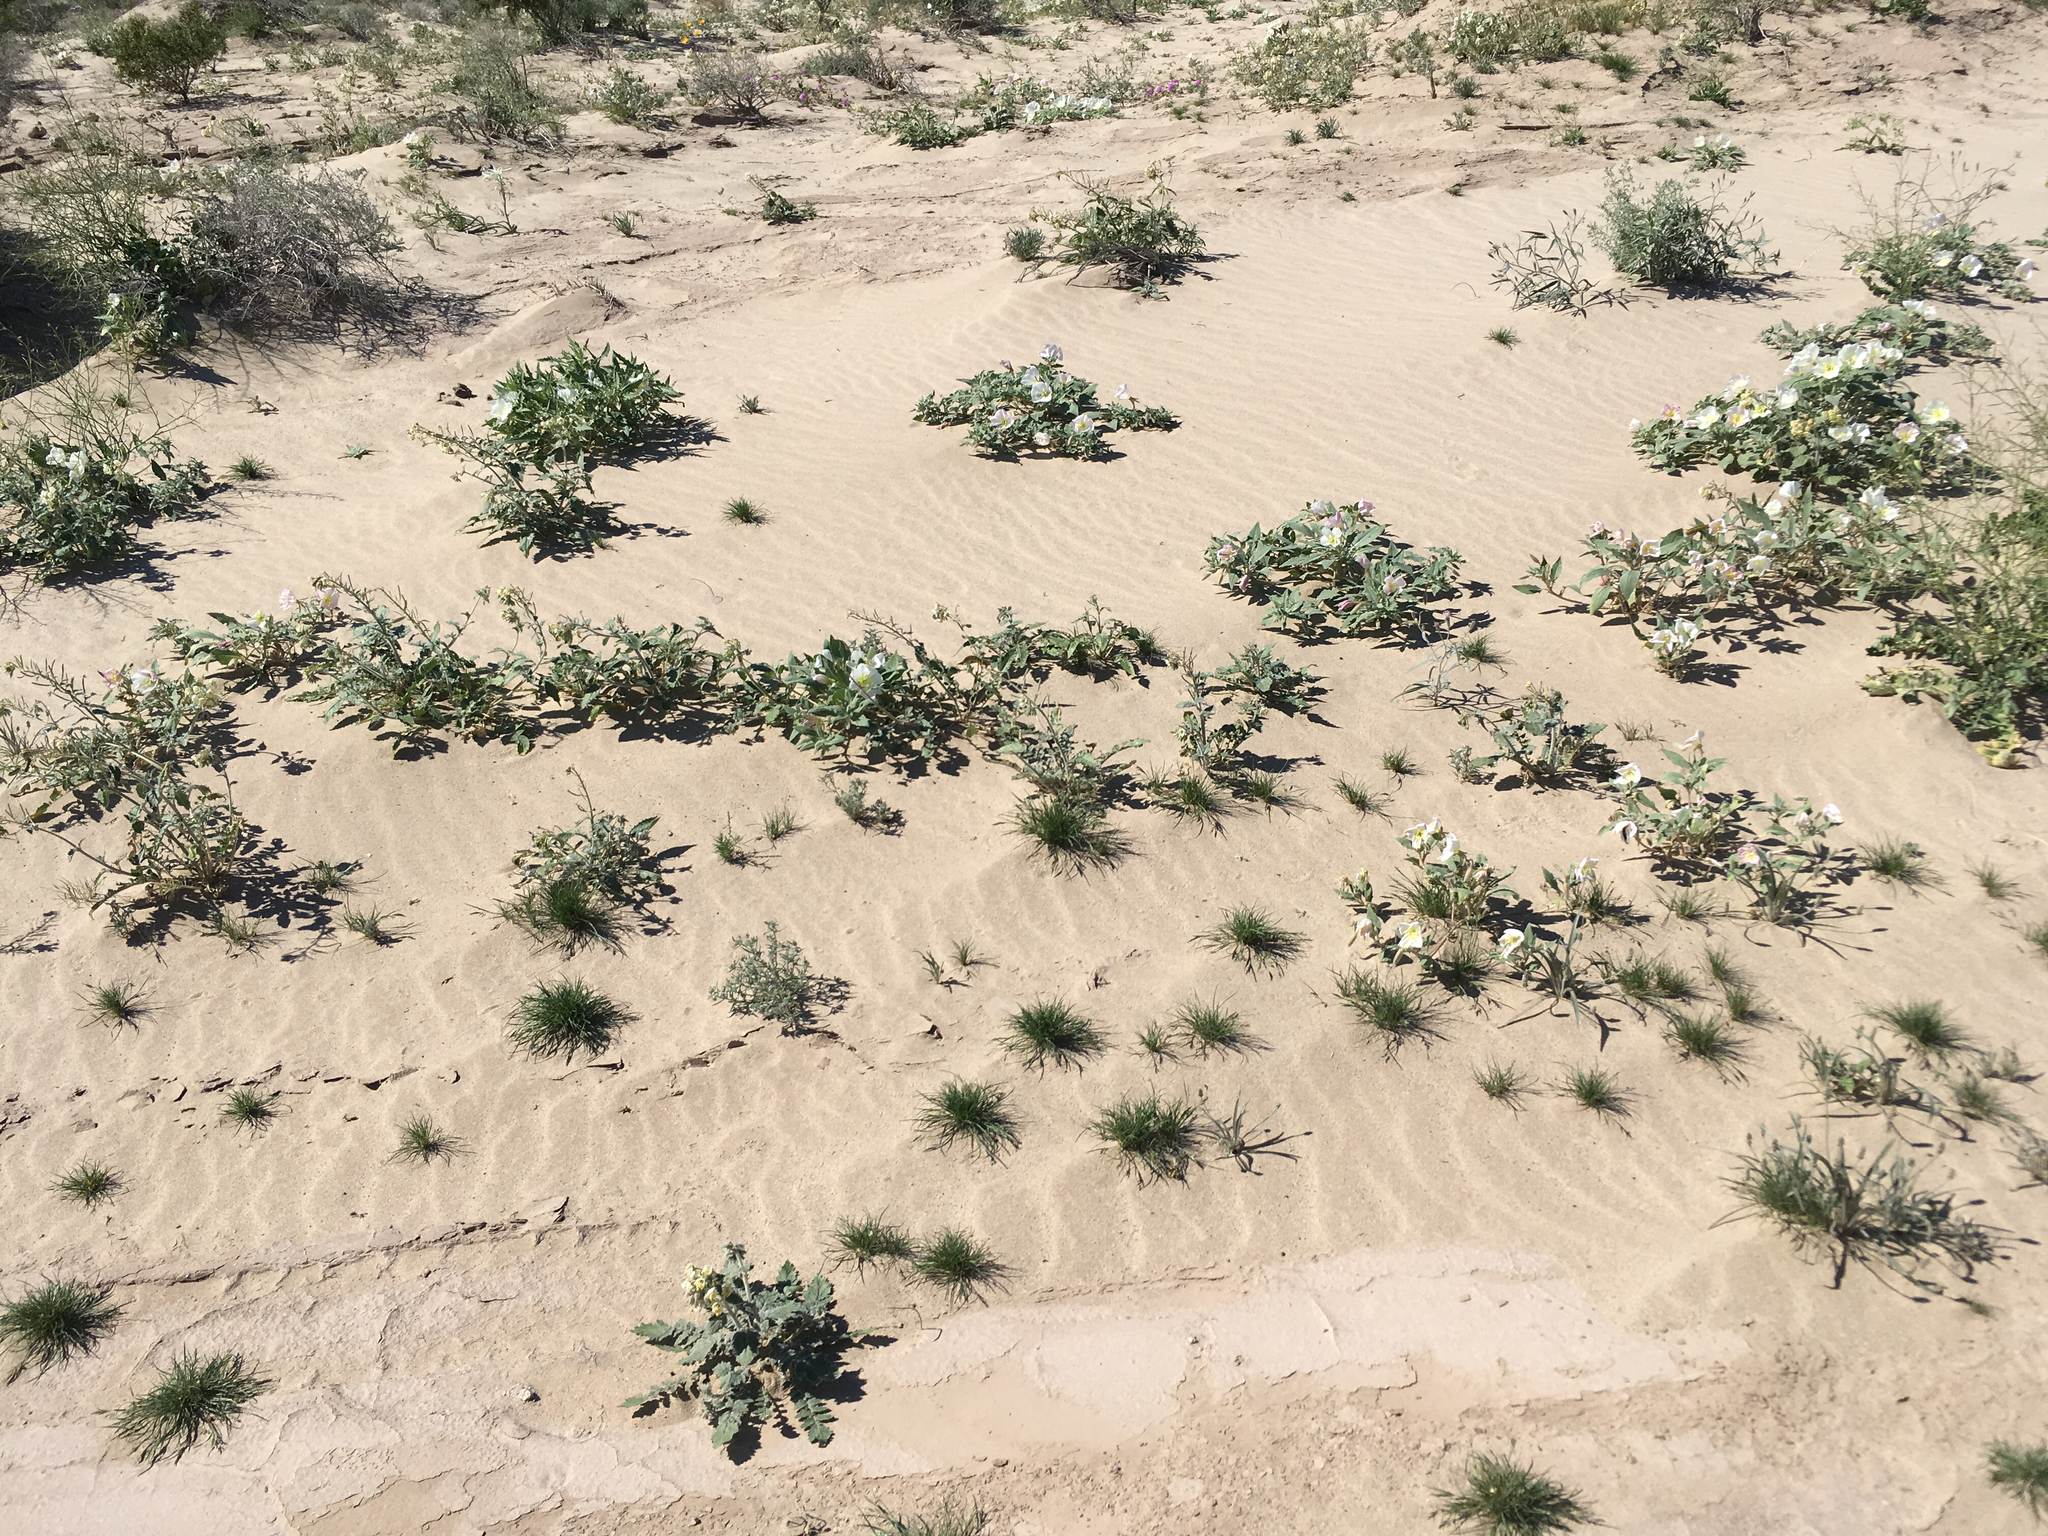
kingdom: Plantae
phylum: Tracheophyta
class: Magnoliopsida
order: Myrtales
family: Onagraceae
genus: Oenothera
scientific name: Oenothera deltoides
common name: Basket evening-primrose
